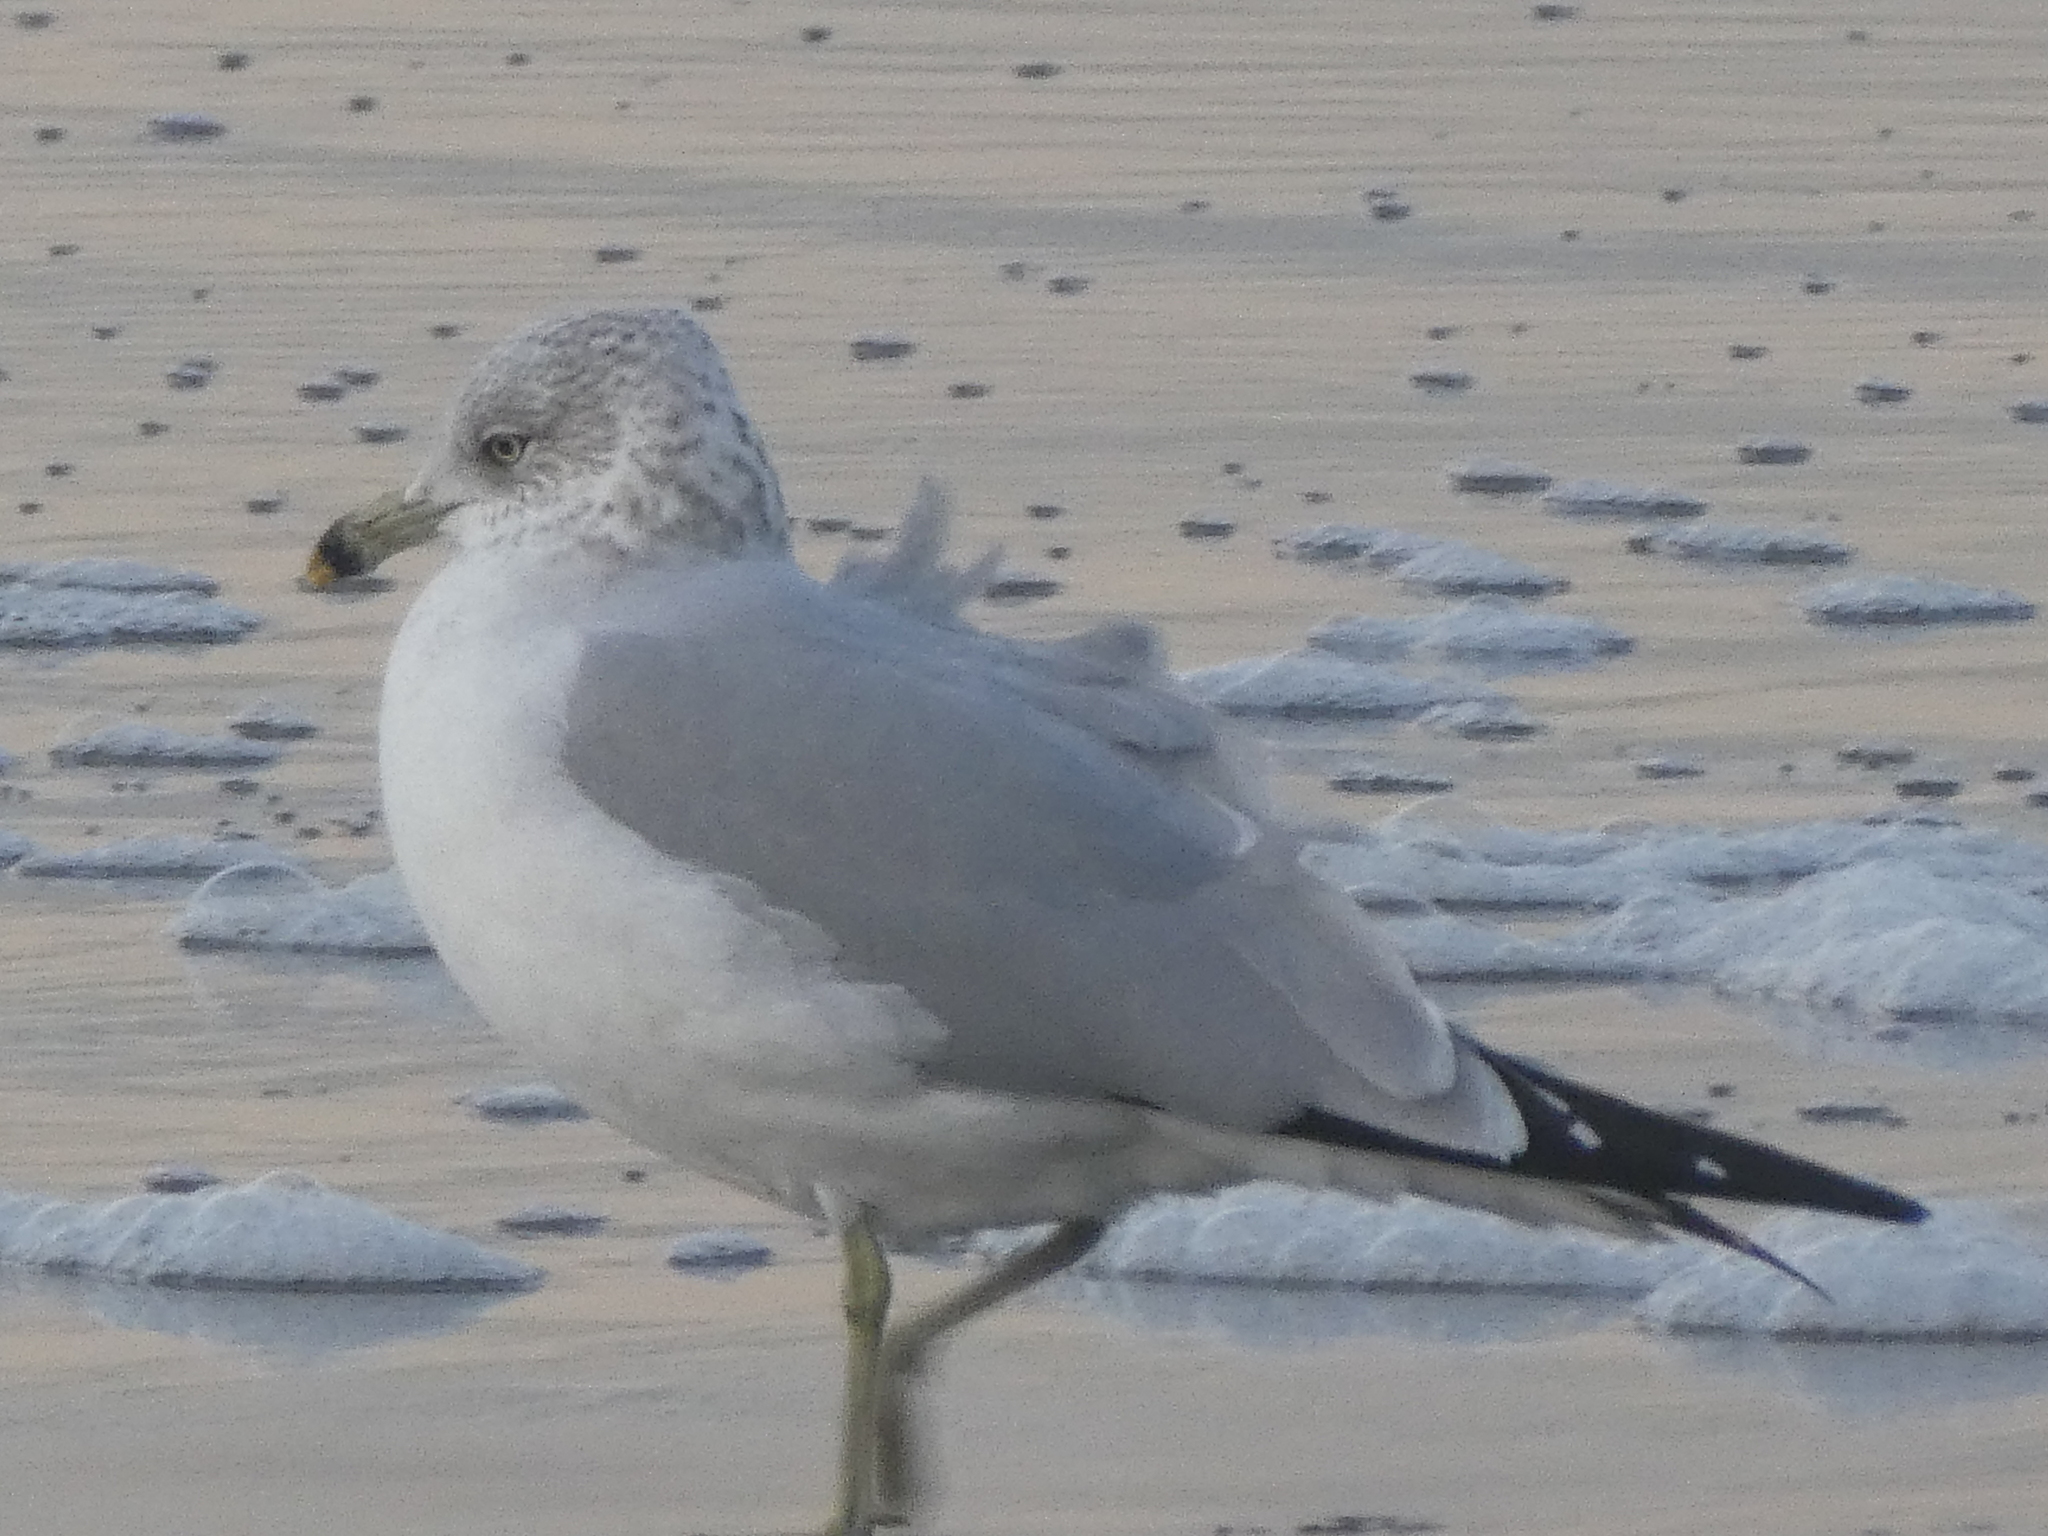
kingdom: Animalia
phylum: Chordata
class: Aves
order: Charadriiformes
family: Laridae
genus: Larus
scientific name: Larus delawarensis
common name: Ring-billed gull
